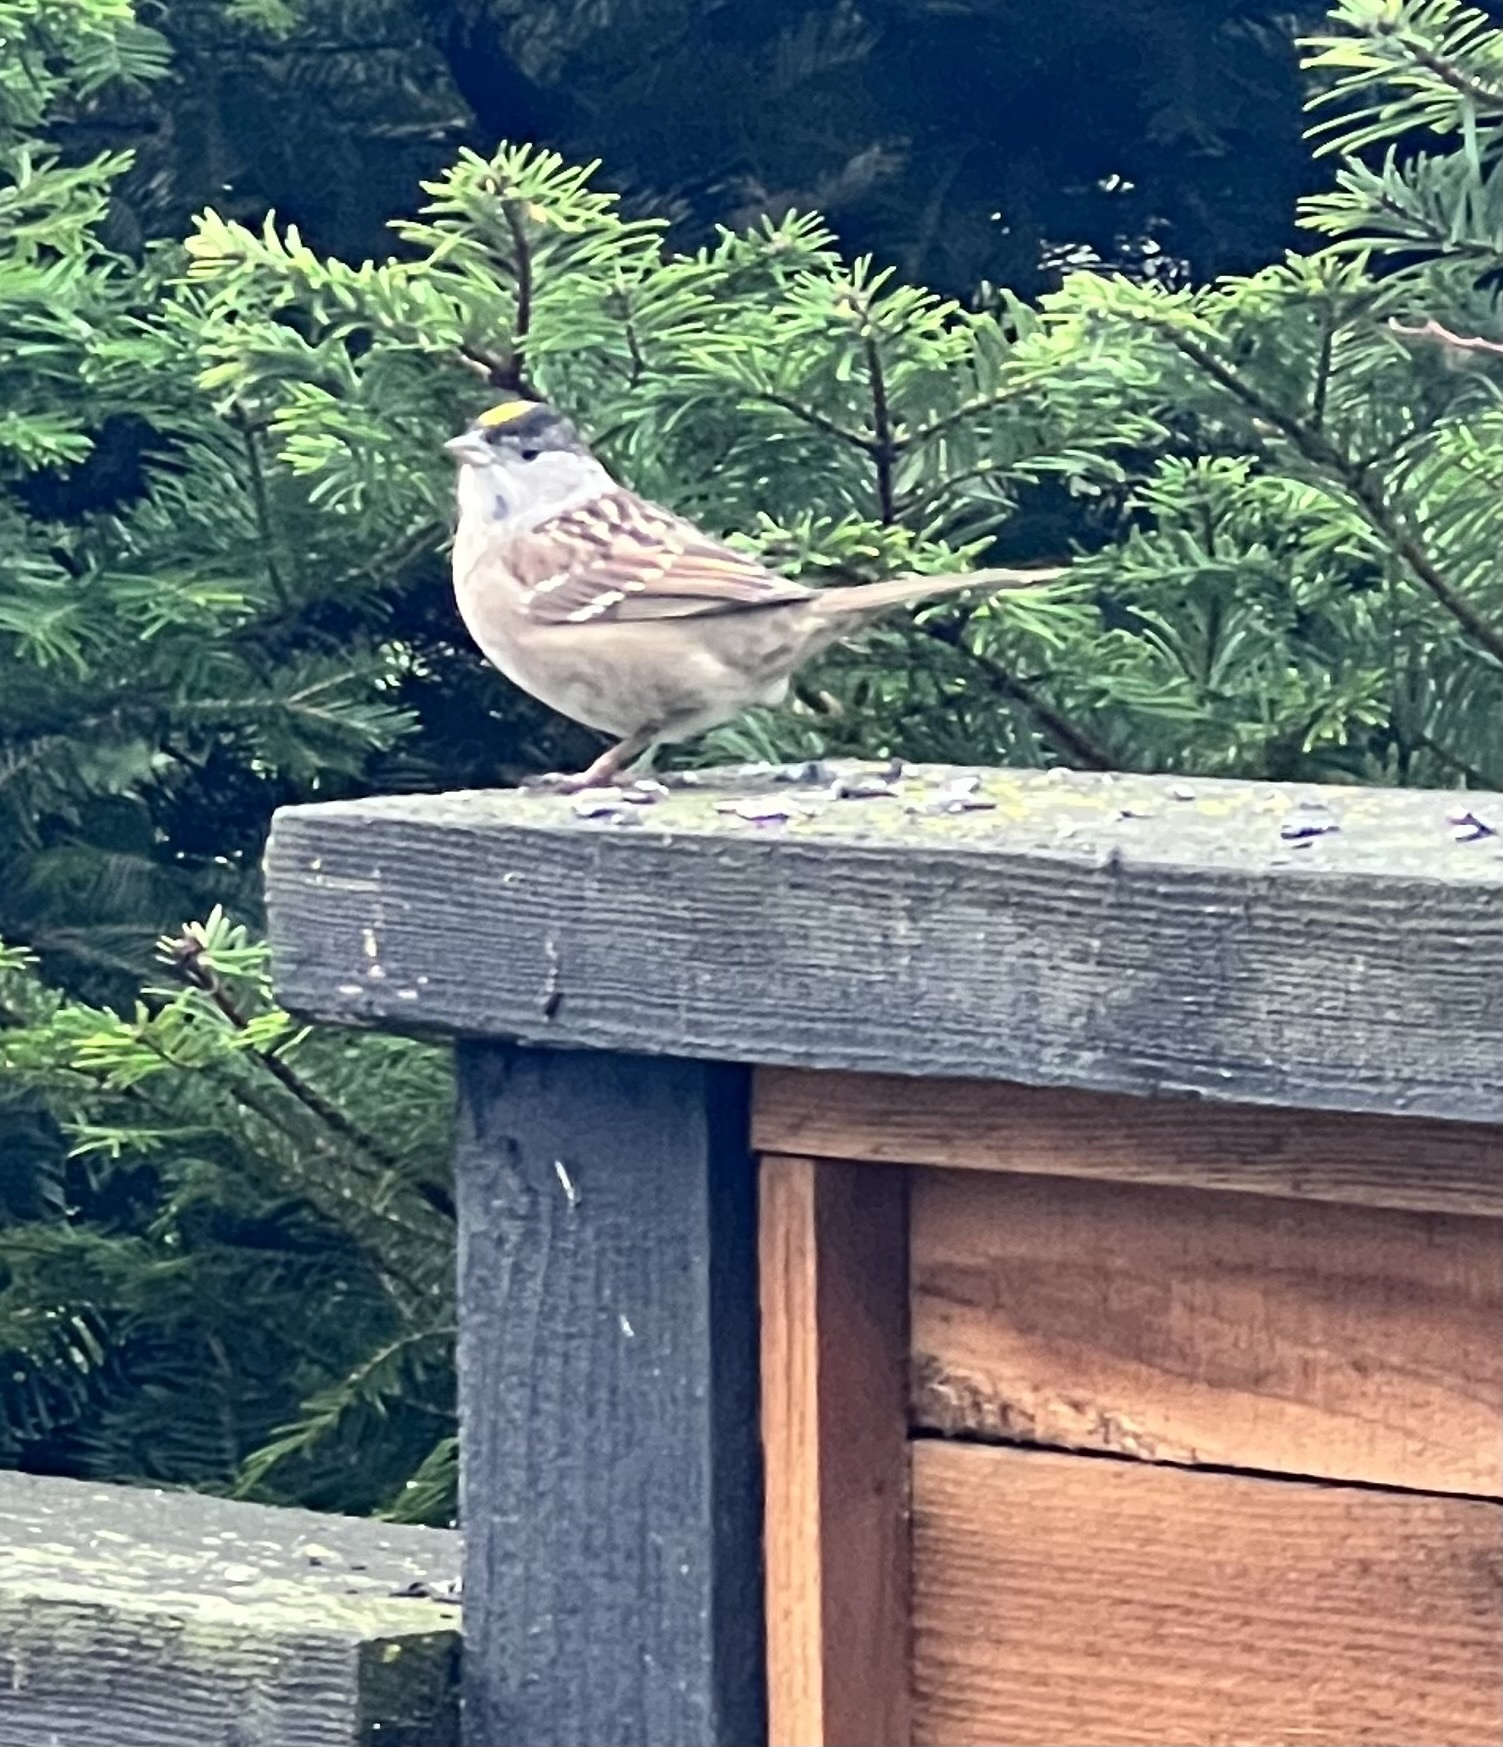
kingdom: Animalia
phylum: Chordata
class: Aves
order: Passeriformes
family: Passerellidae
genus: Zonotrichia
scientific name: Zonotrichia atricapilla
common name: Golden-crowned sparrow
